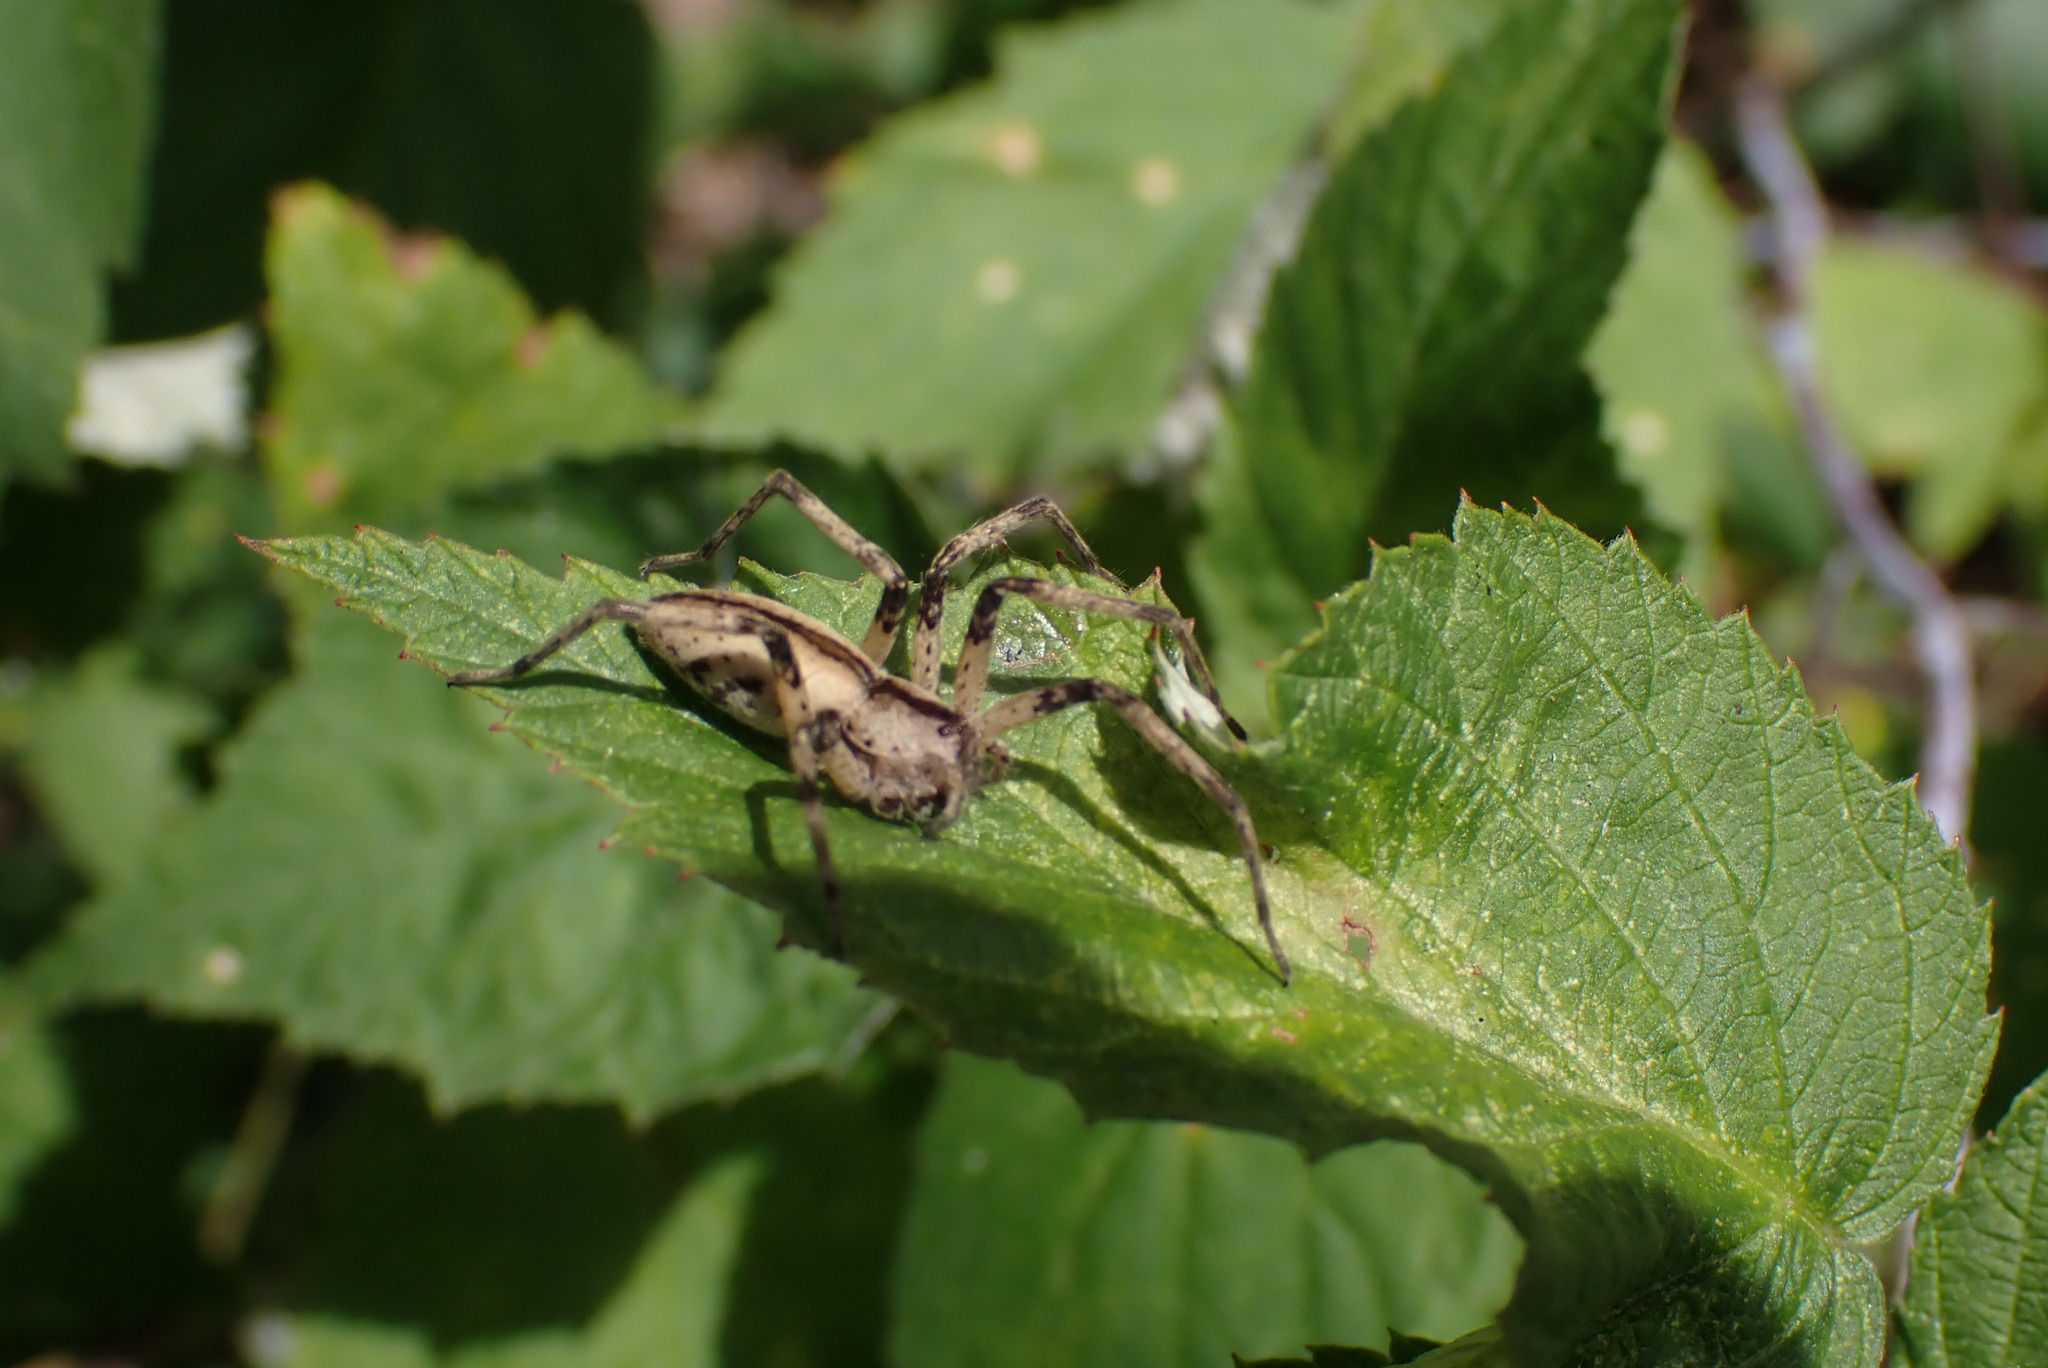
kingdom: Animalia
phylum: Arthropoda
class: Arachnida
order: Araneae
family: Pisauridae
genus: Pisaurina
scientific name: Pisaurina mira
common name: American nursery web spider
